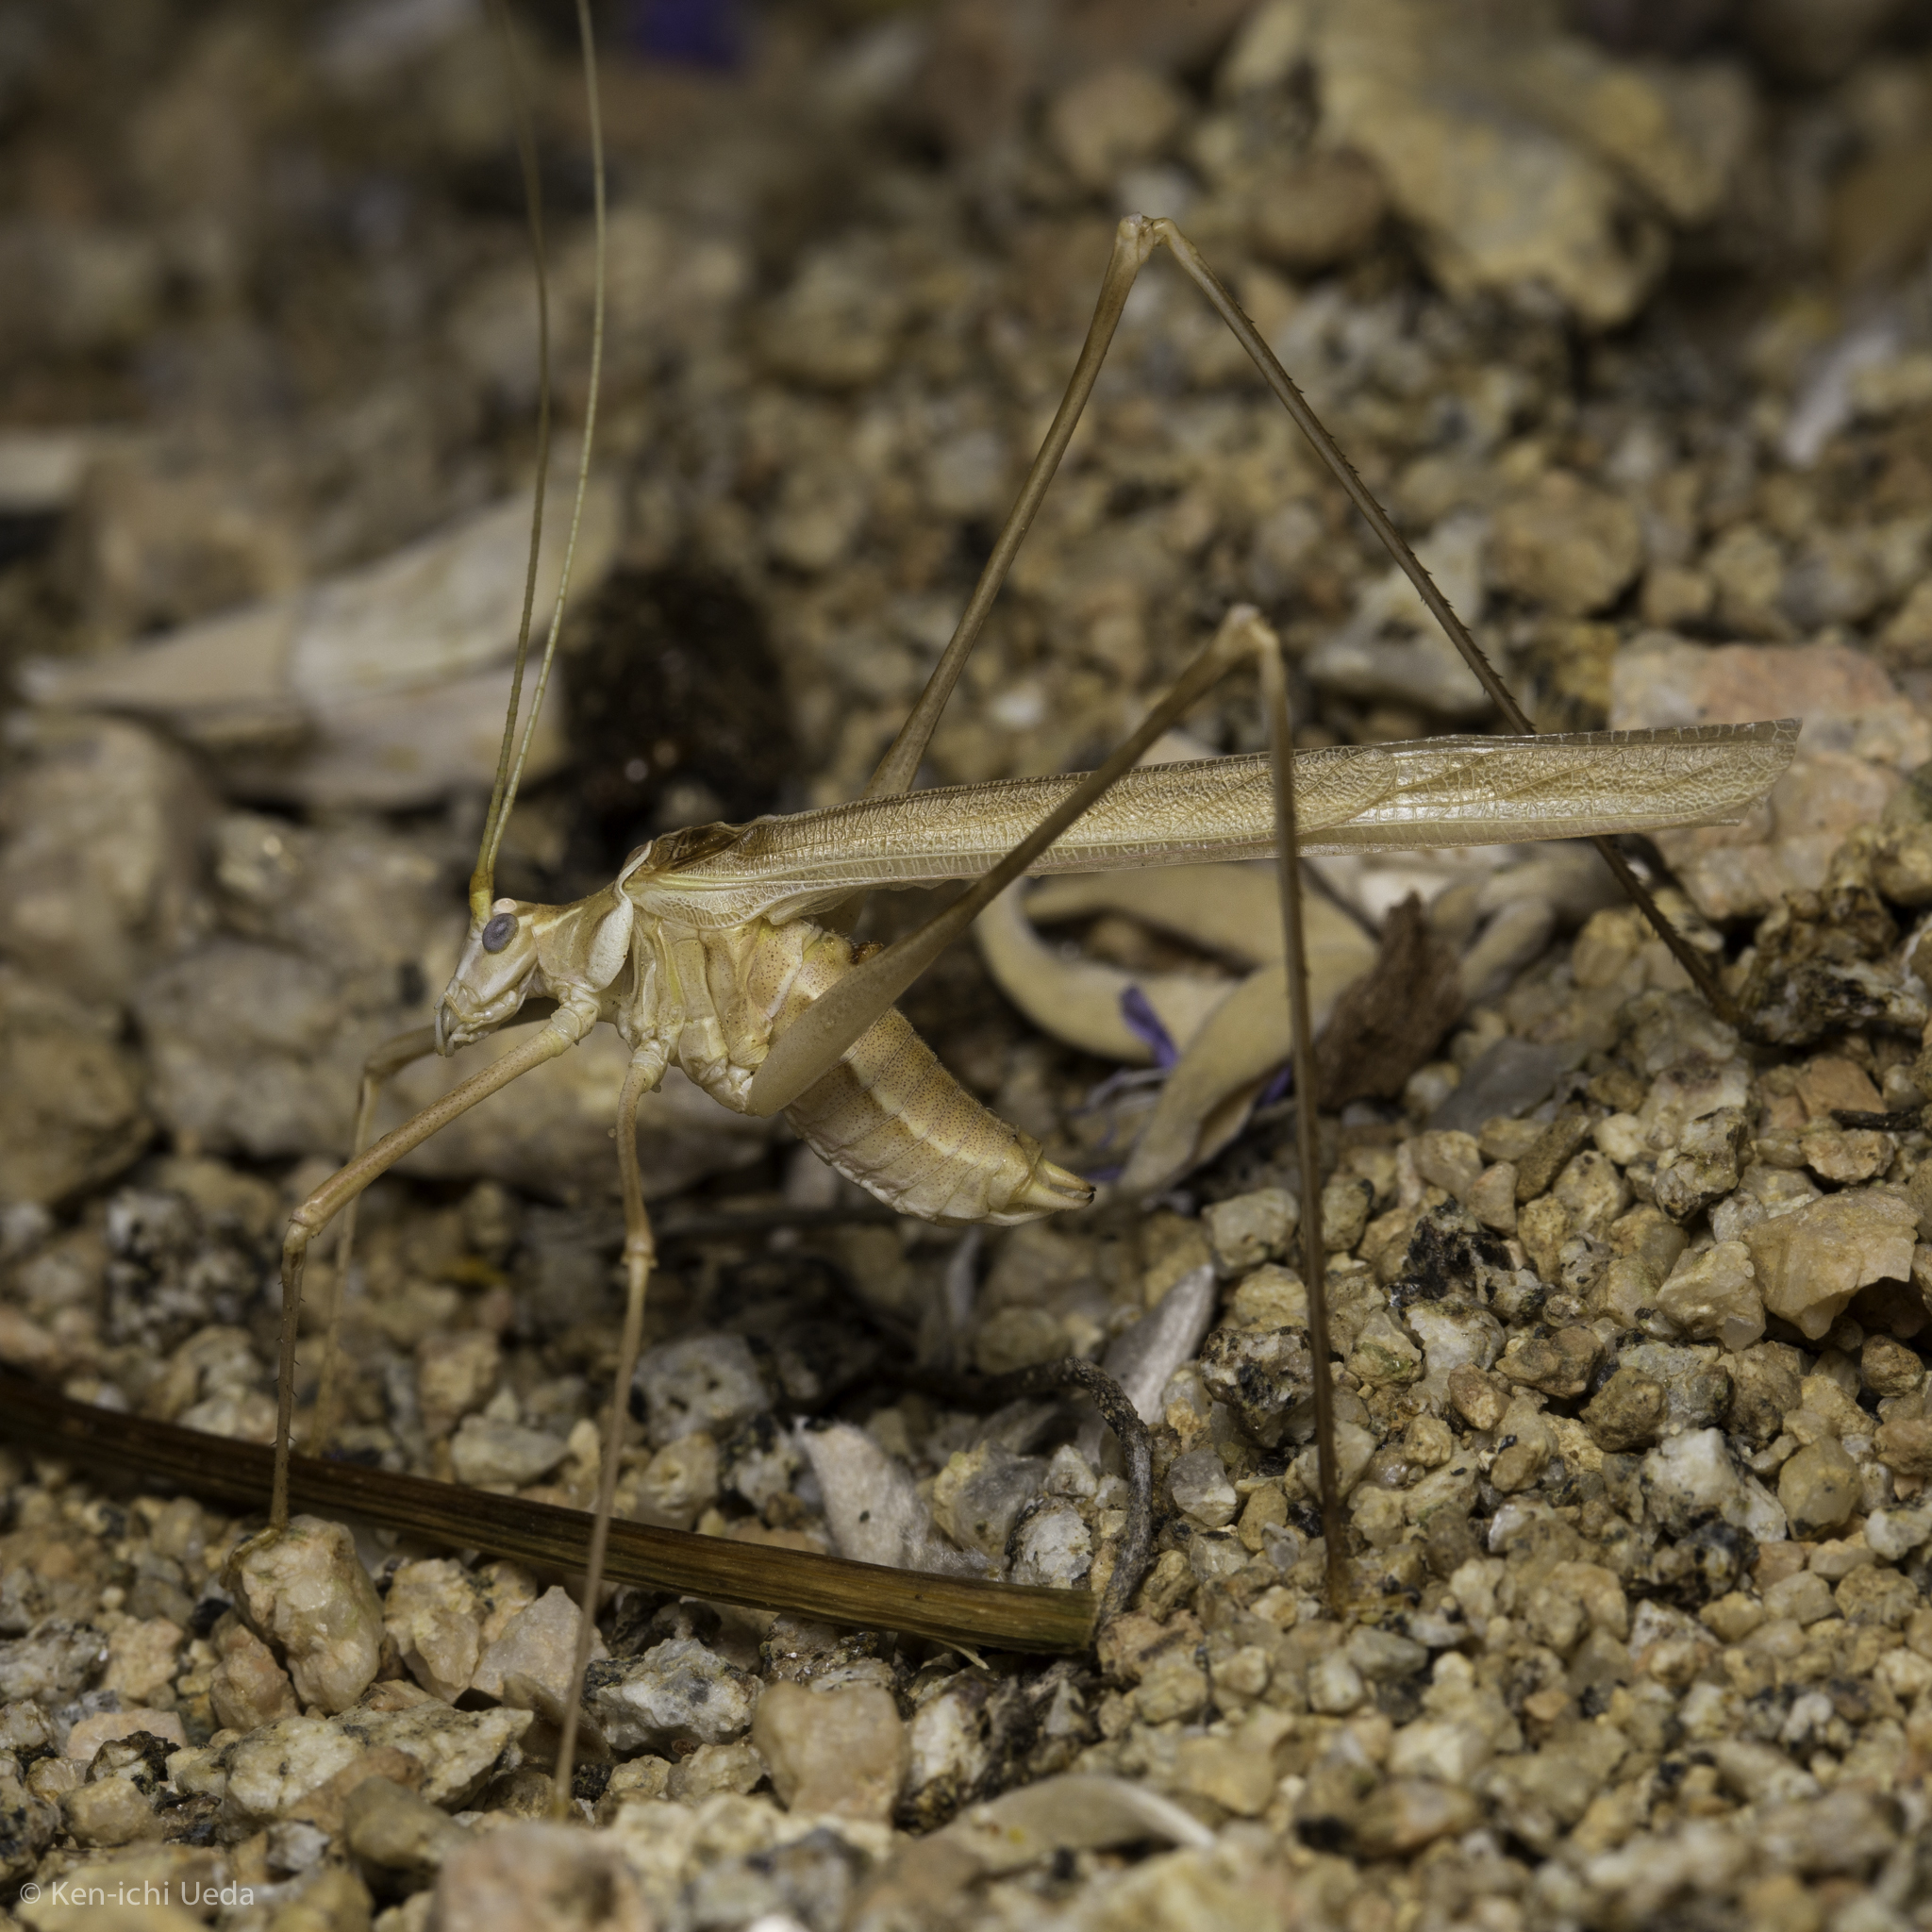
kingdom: Animalia
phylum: Arthropoda
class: Insecta
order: Orthoptera
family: Tettigoniidae
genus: Arethaea
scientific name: Arethaea brevicauda
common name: Short-tail thread-legged katydid
